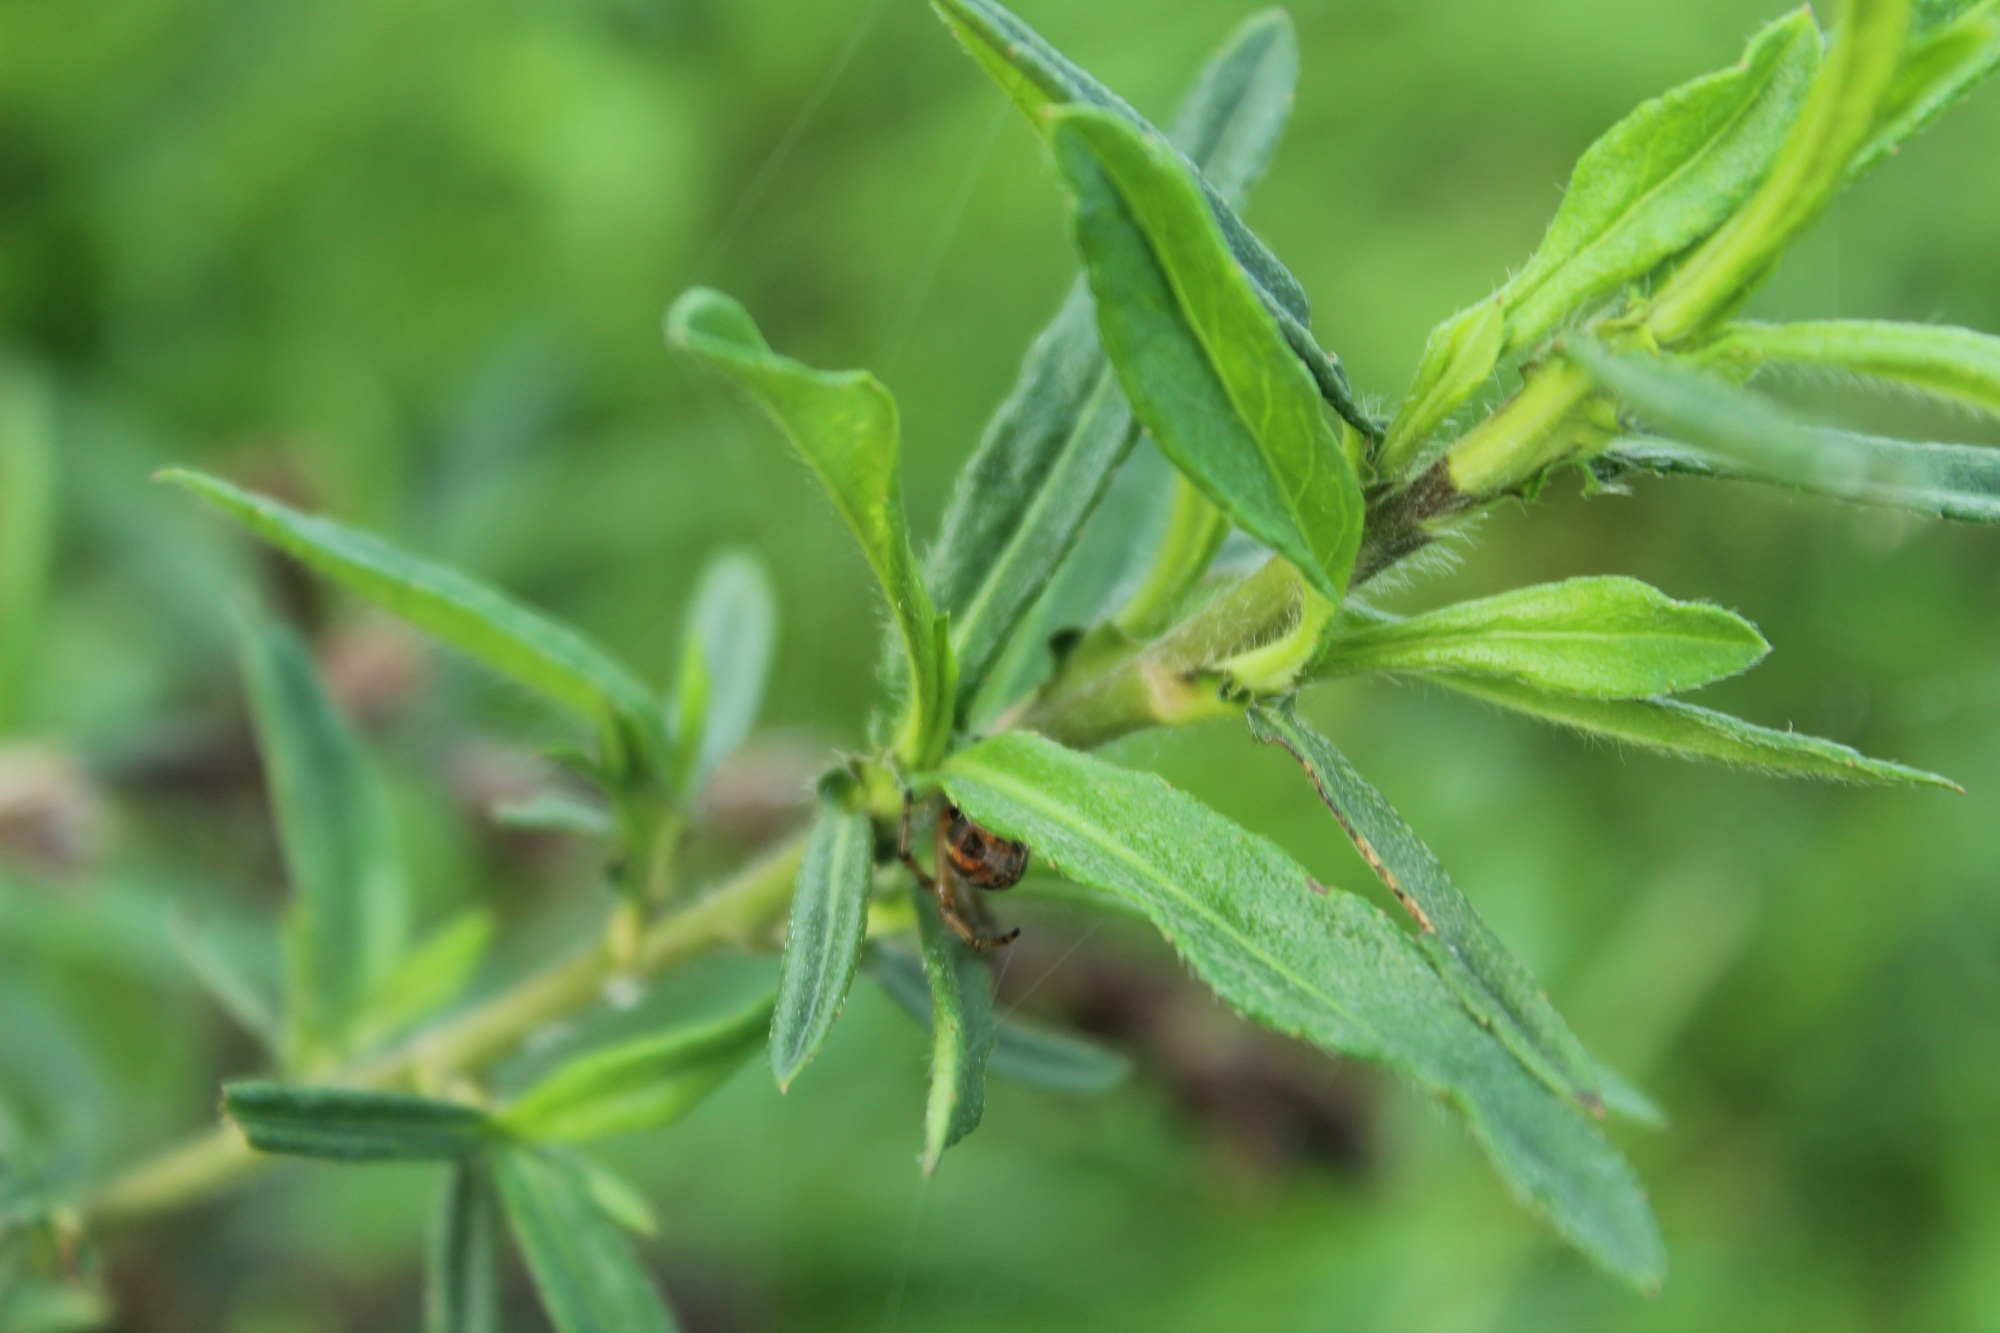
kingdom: Plantae
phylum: Tracheophyta
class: Magnoliopsida
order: Asterales
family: Asteraceae
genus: Pseudelephantopus
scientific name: Pseudelephantopus spicatus
